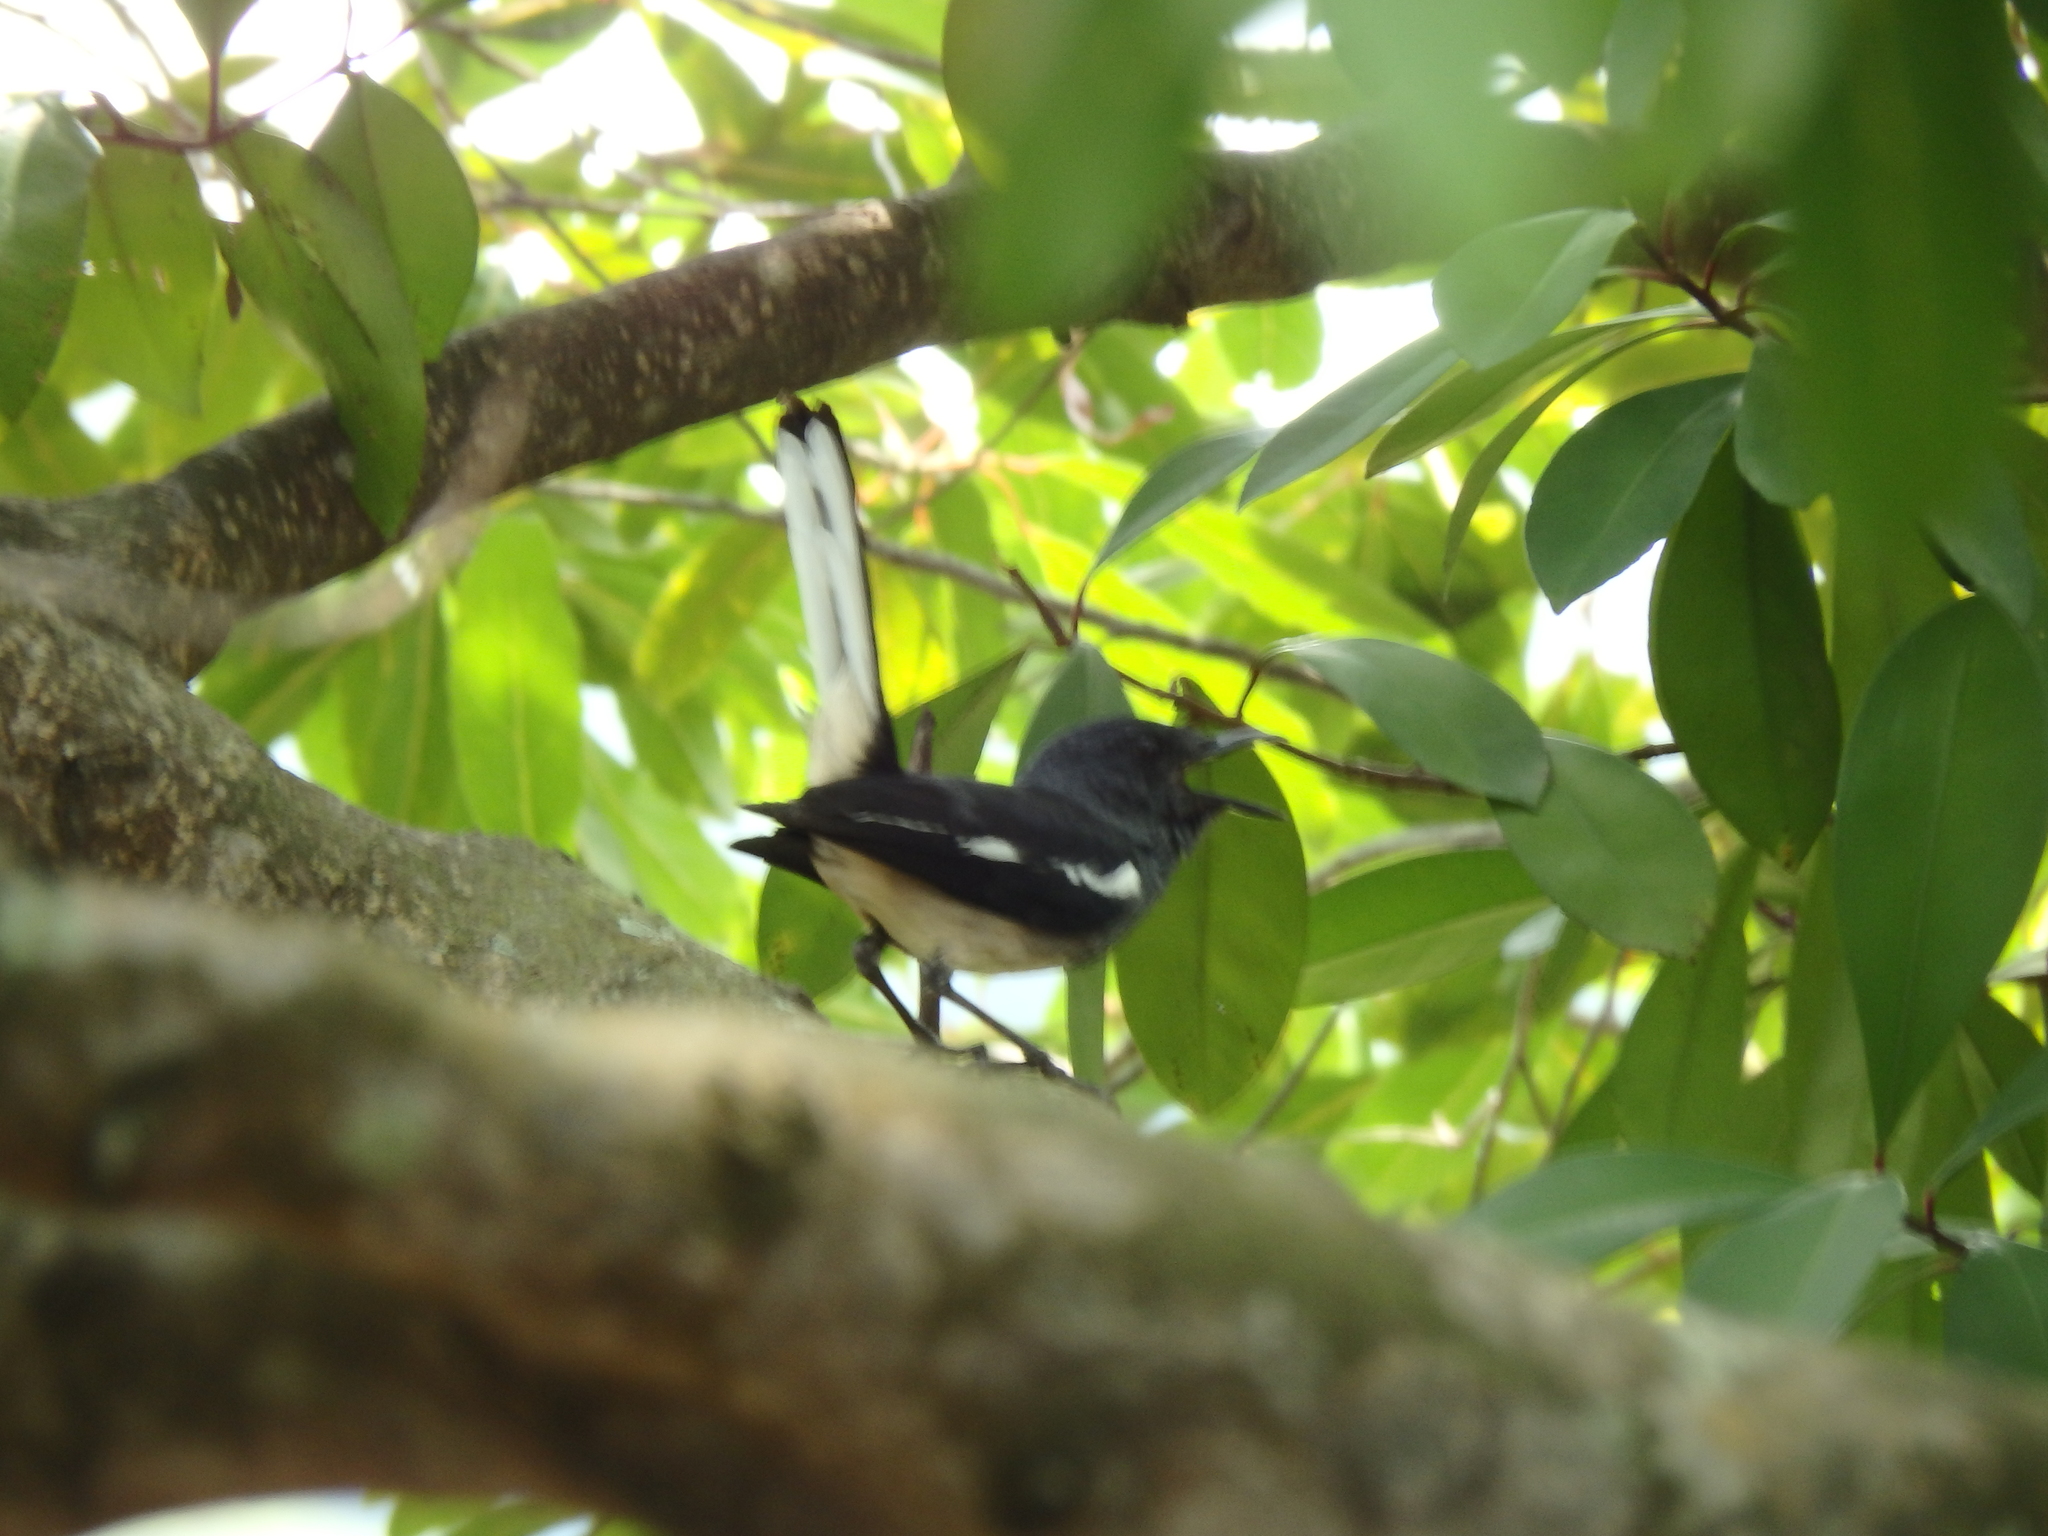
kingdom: Animalia
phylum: Chordata
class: Aves
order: Passeriformes
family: Muscicapidae
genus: Copsychus
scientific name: Copsychus saularis
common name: Oriental magpie-robin
